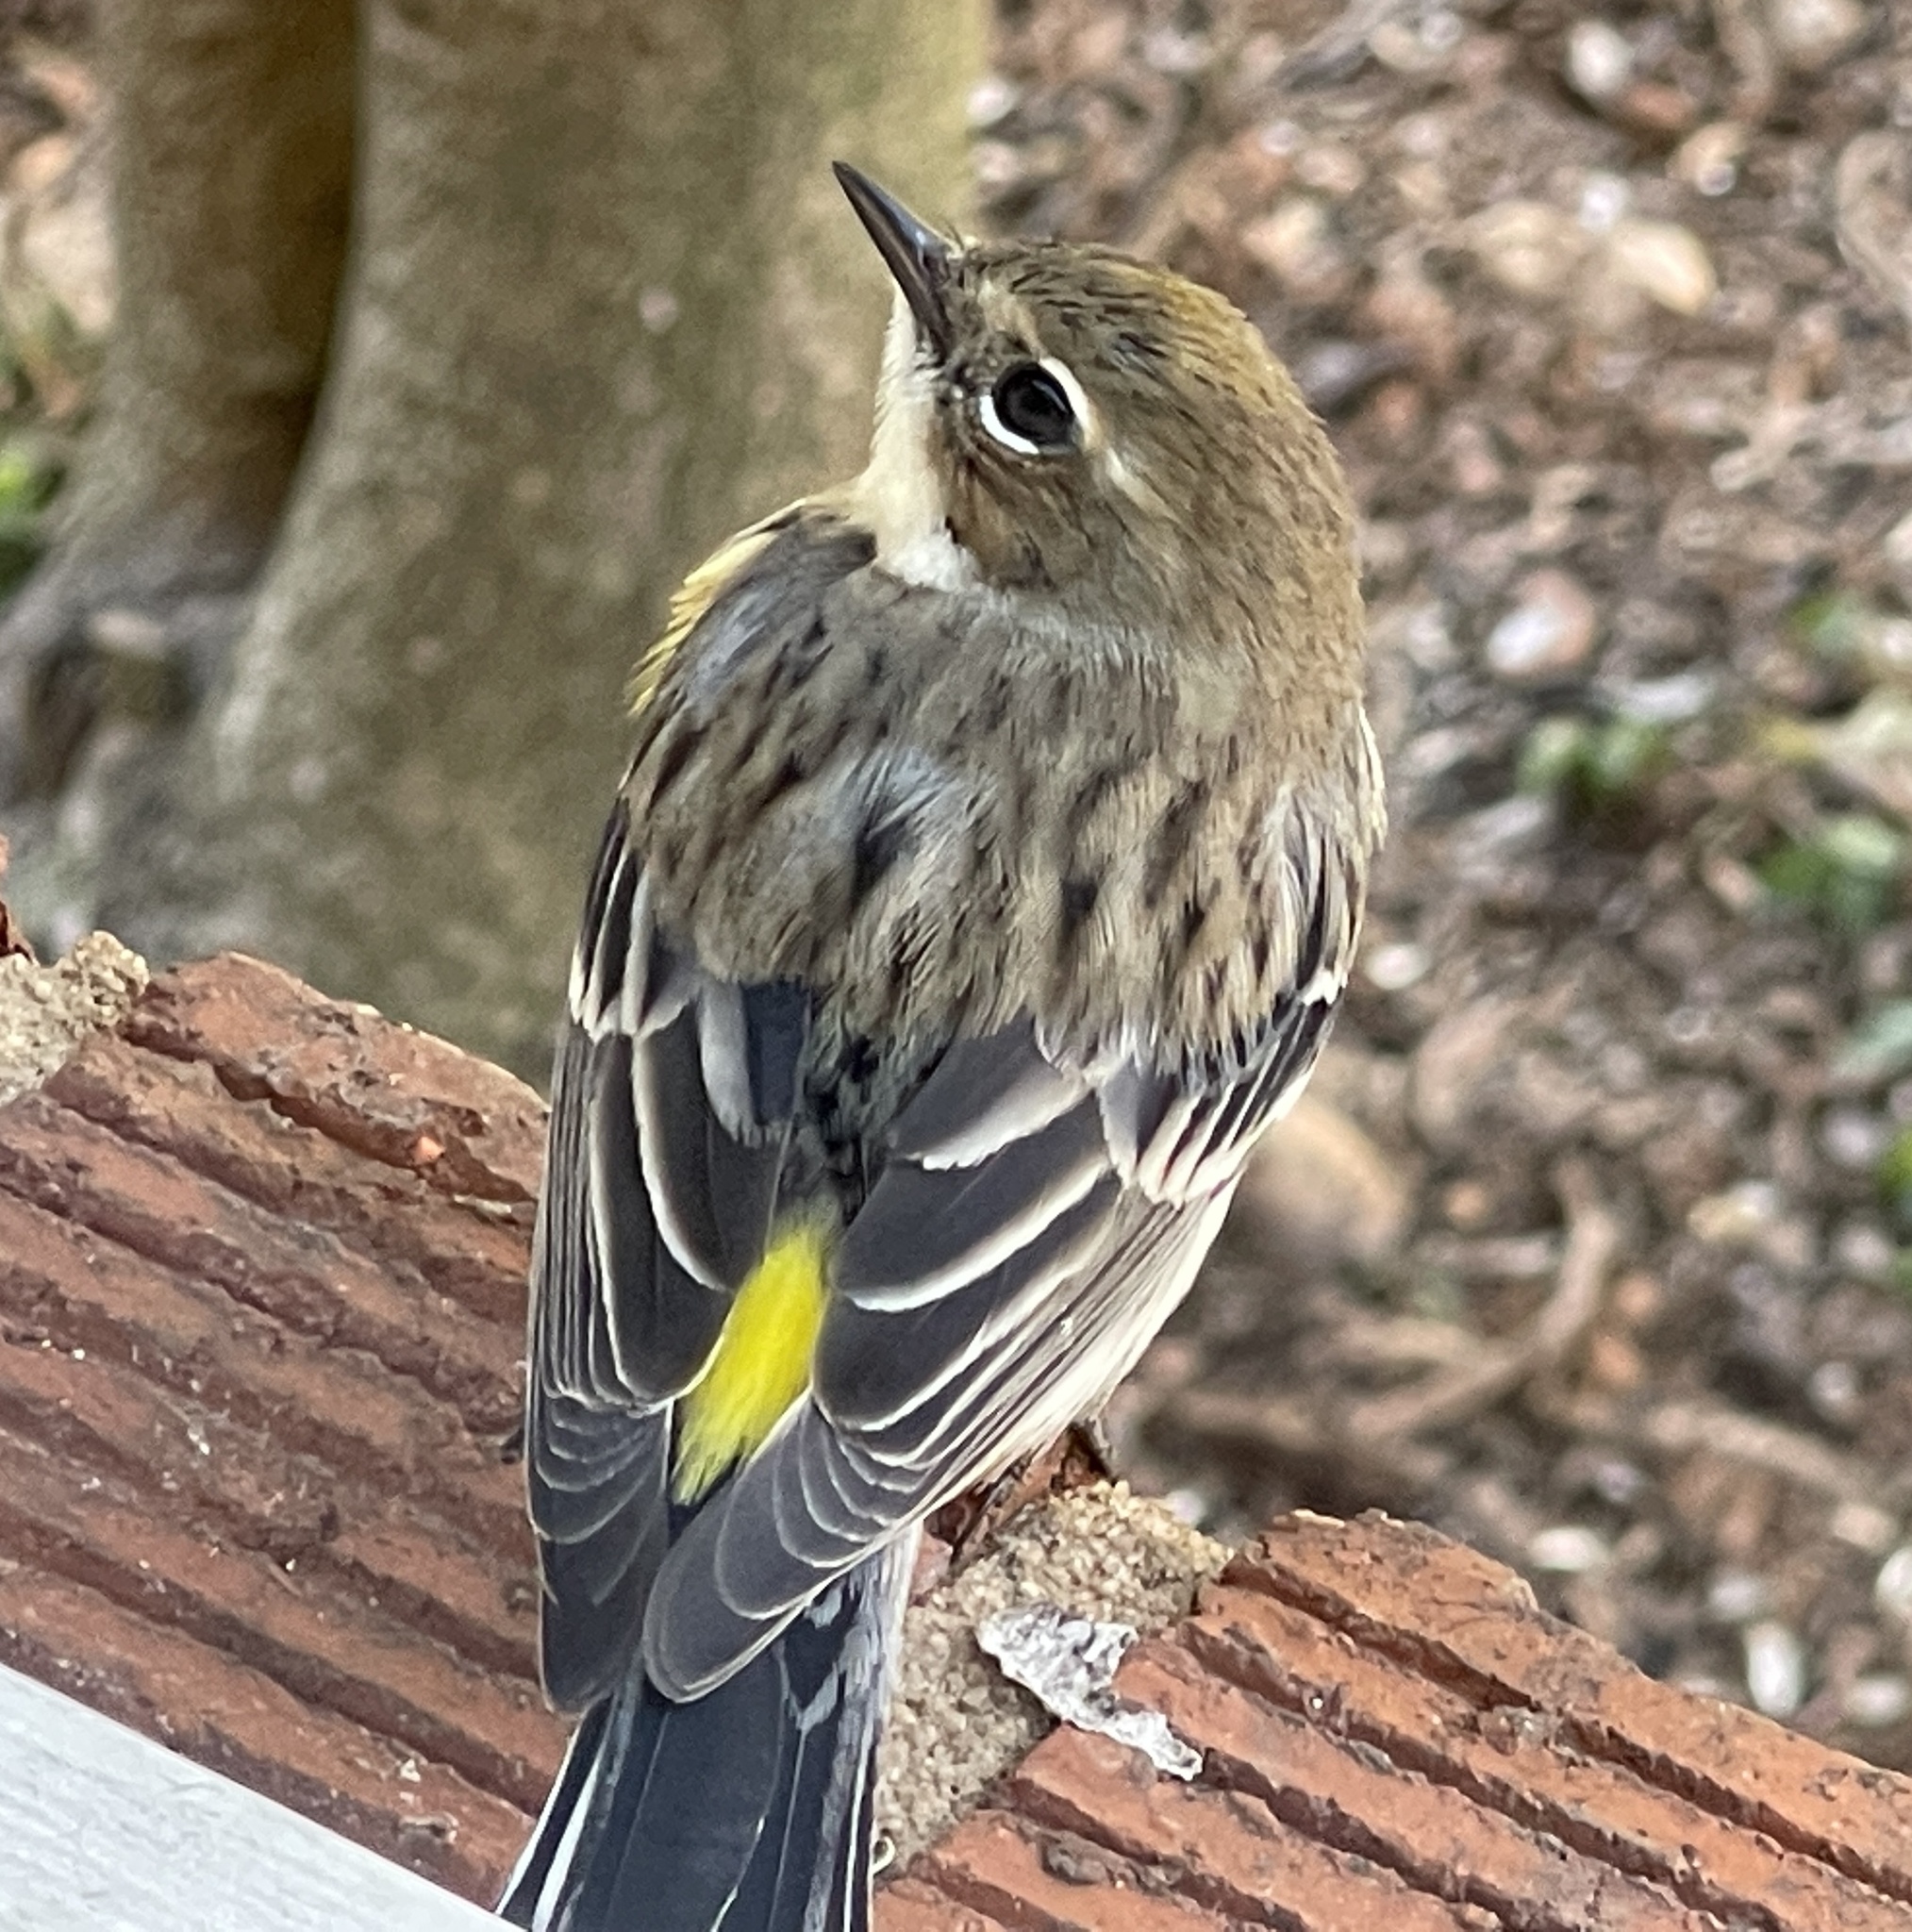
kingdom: Animalia
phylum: Chordata
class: Aves
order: Passeriformes
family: Parulidae
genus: Setophaga
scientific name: Setophaga coronata
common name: Myrtle warbler
